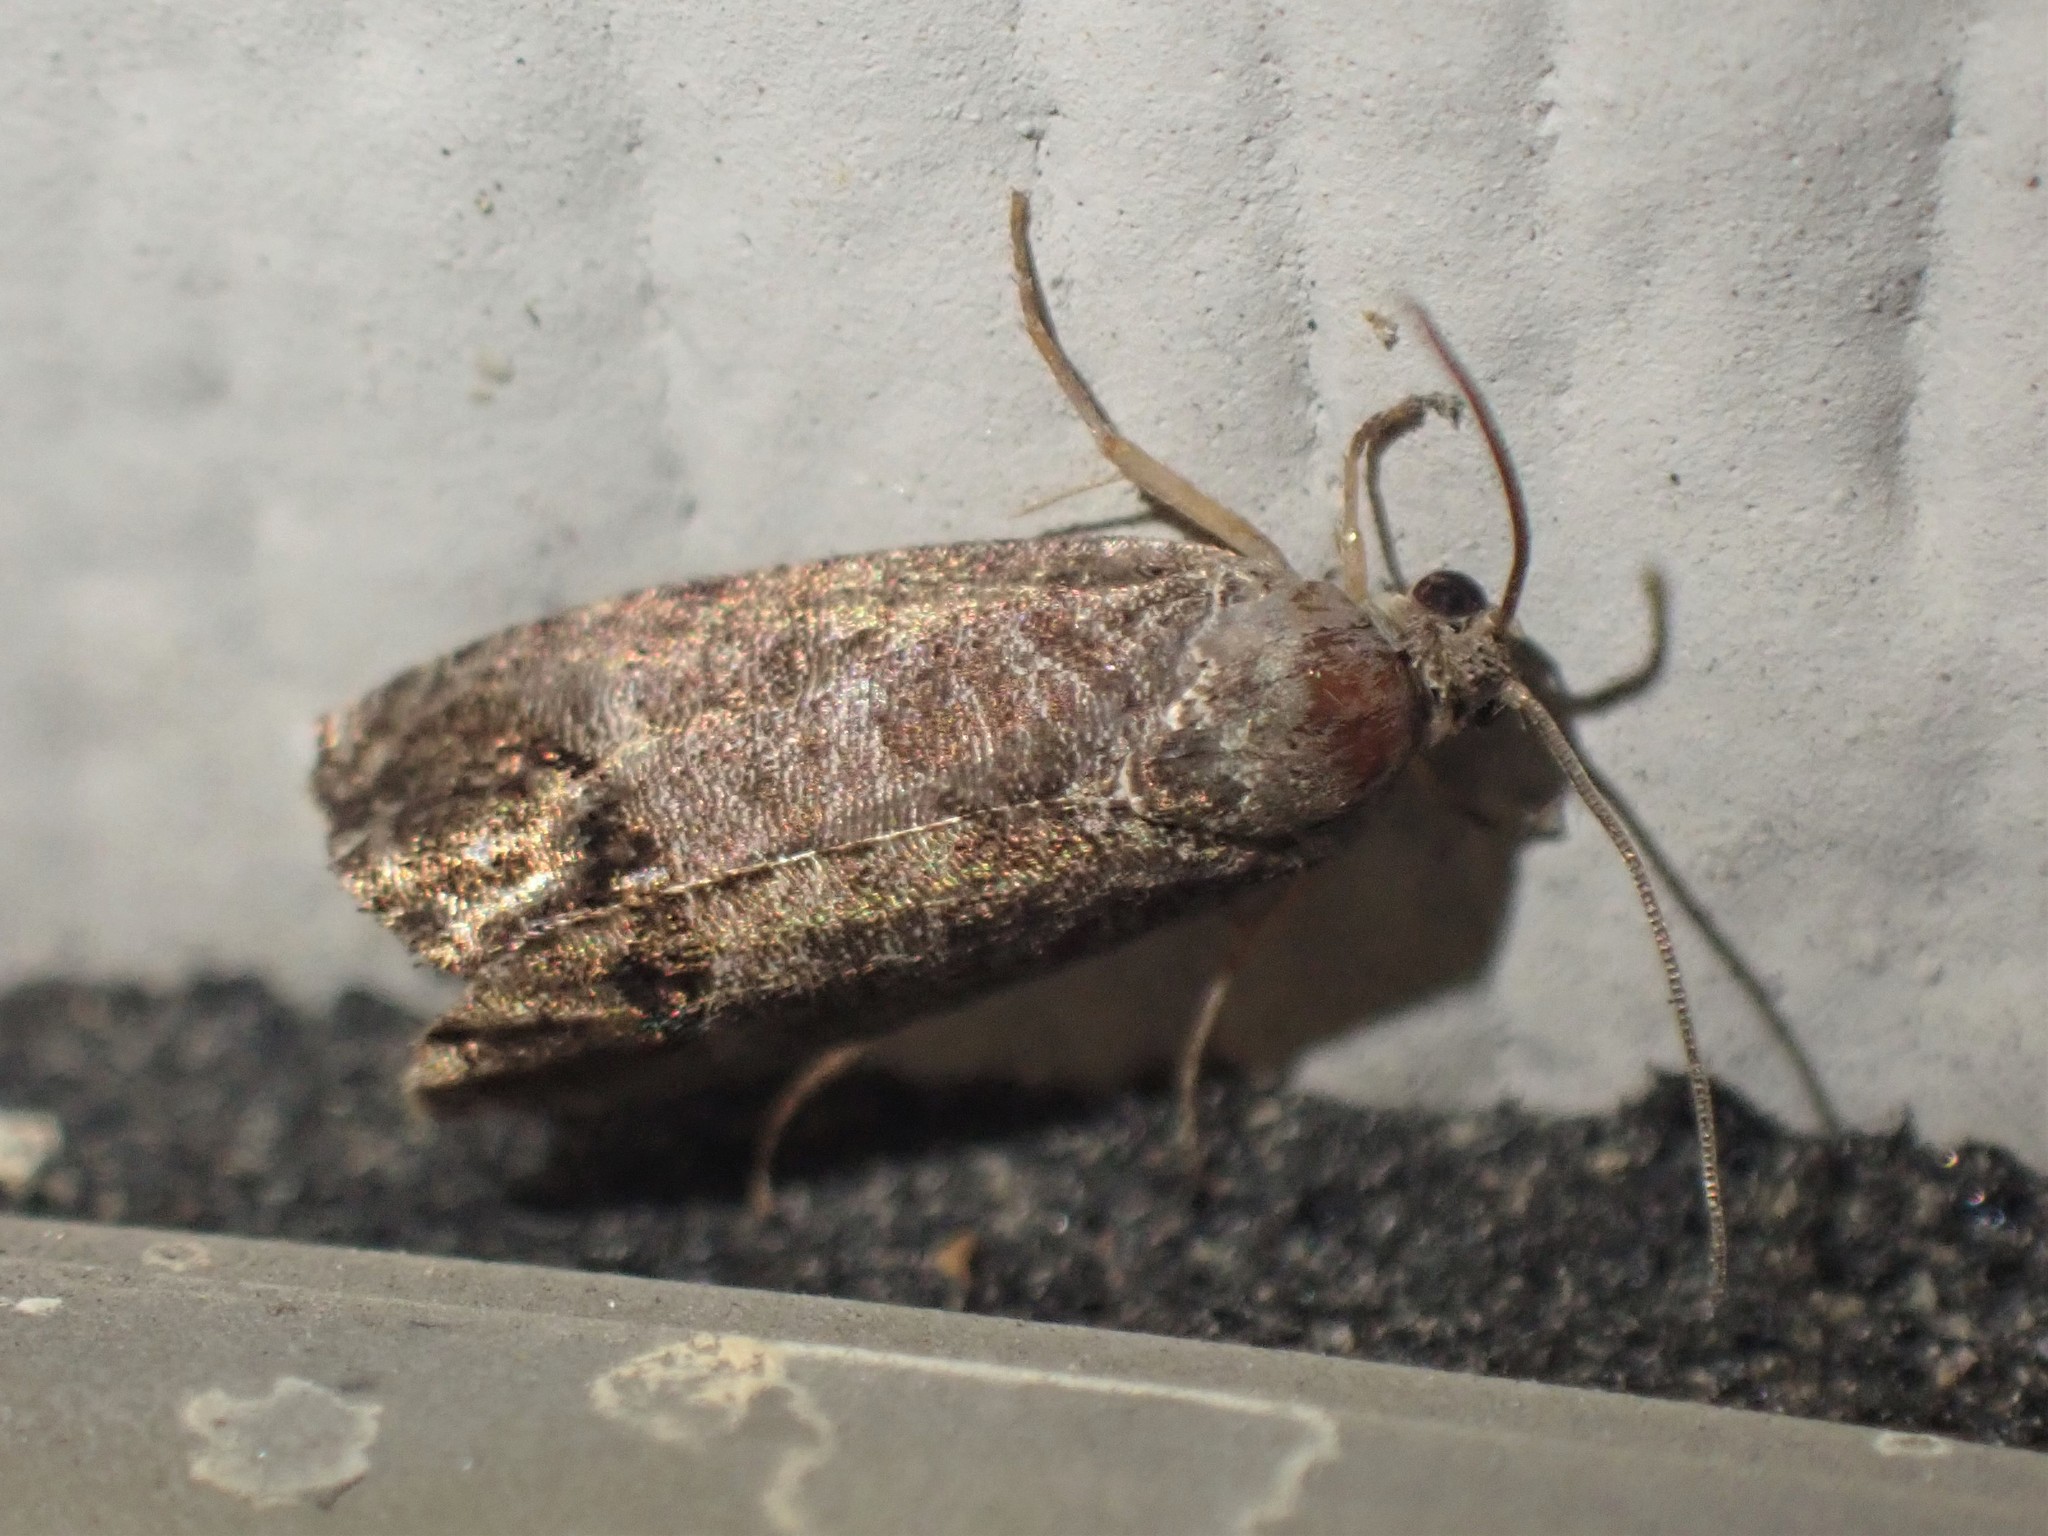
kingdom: Animalia
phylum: Arthropoda
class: Insecta
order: Lepidoptera
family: Tortricidae
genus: Cydia
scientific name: Cydia pomonella
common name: Codling moth
